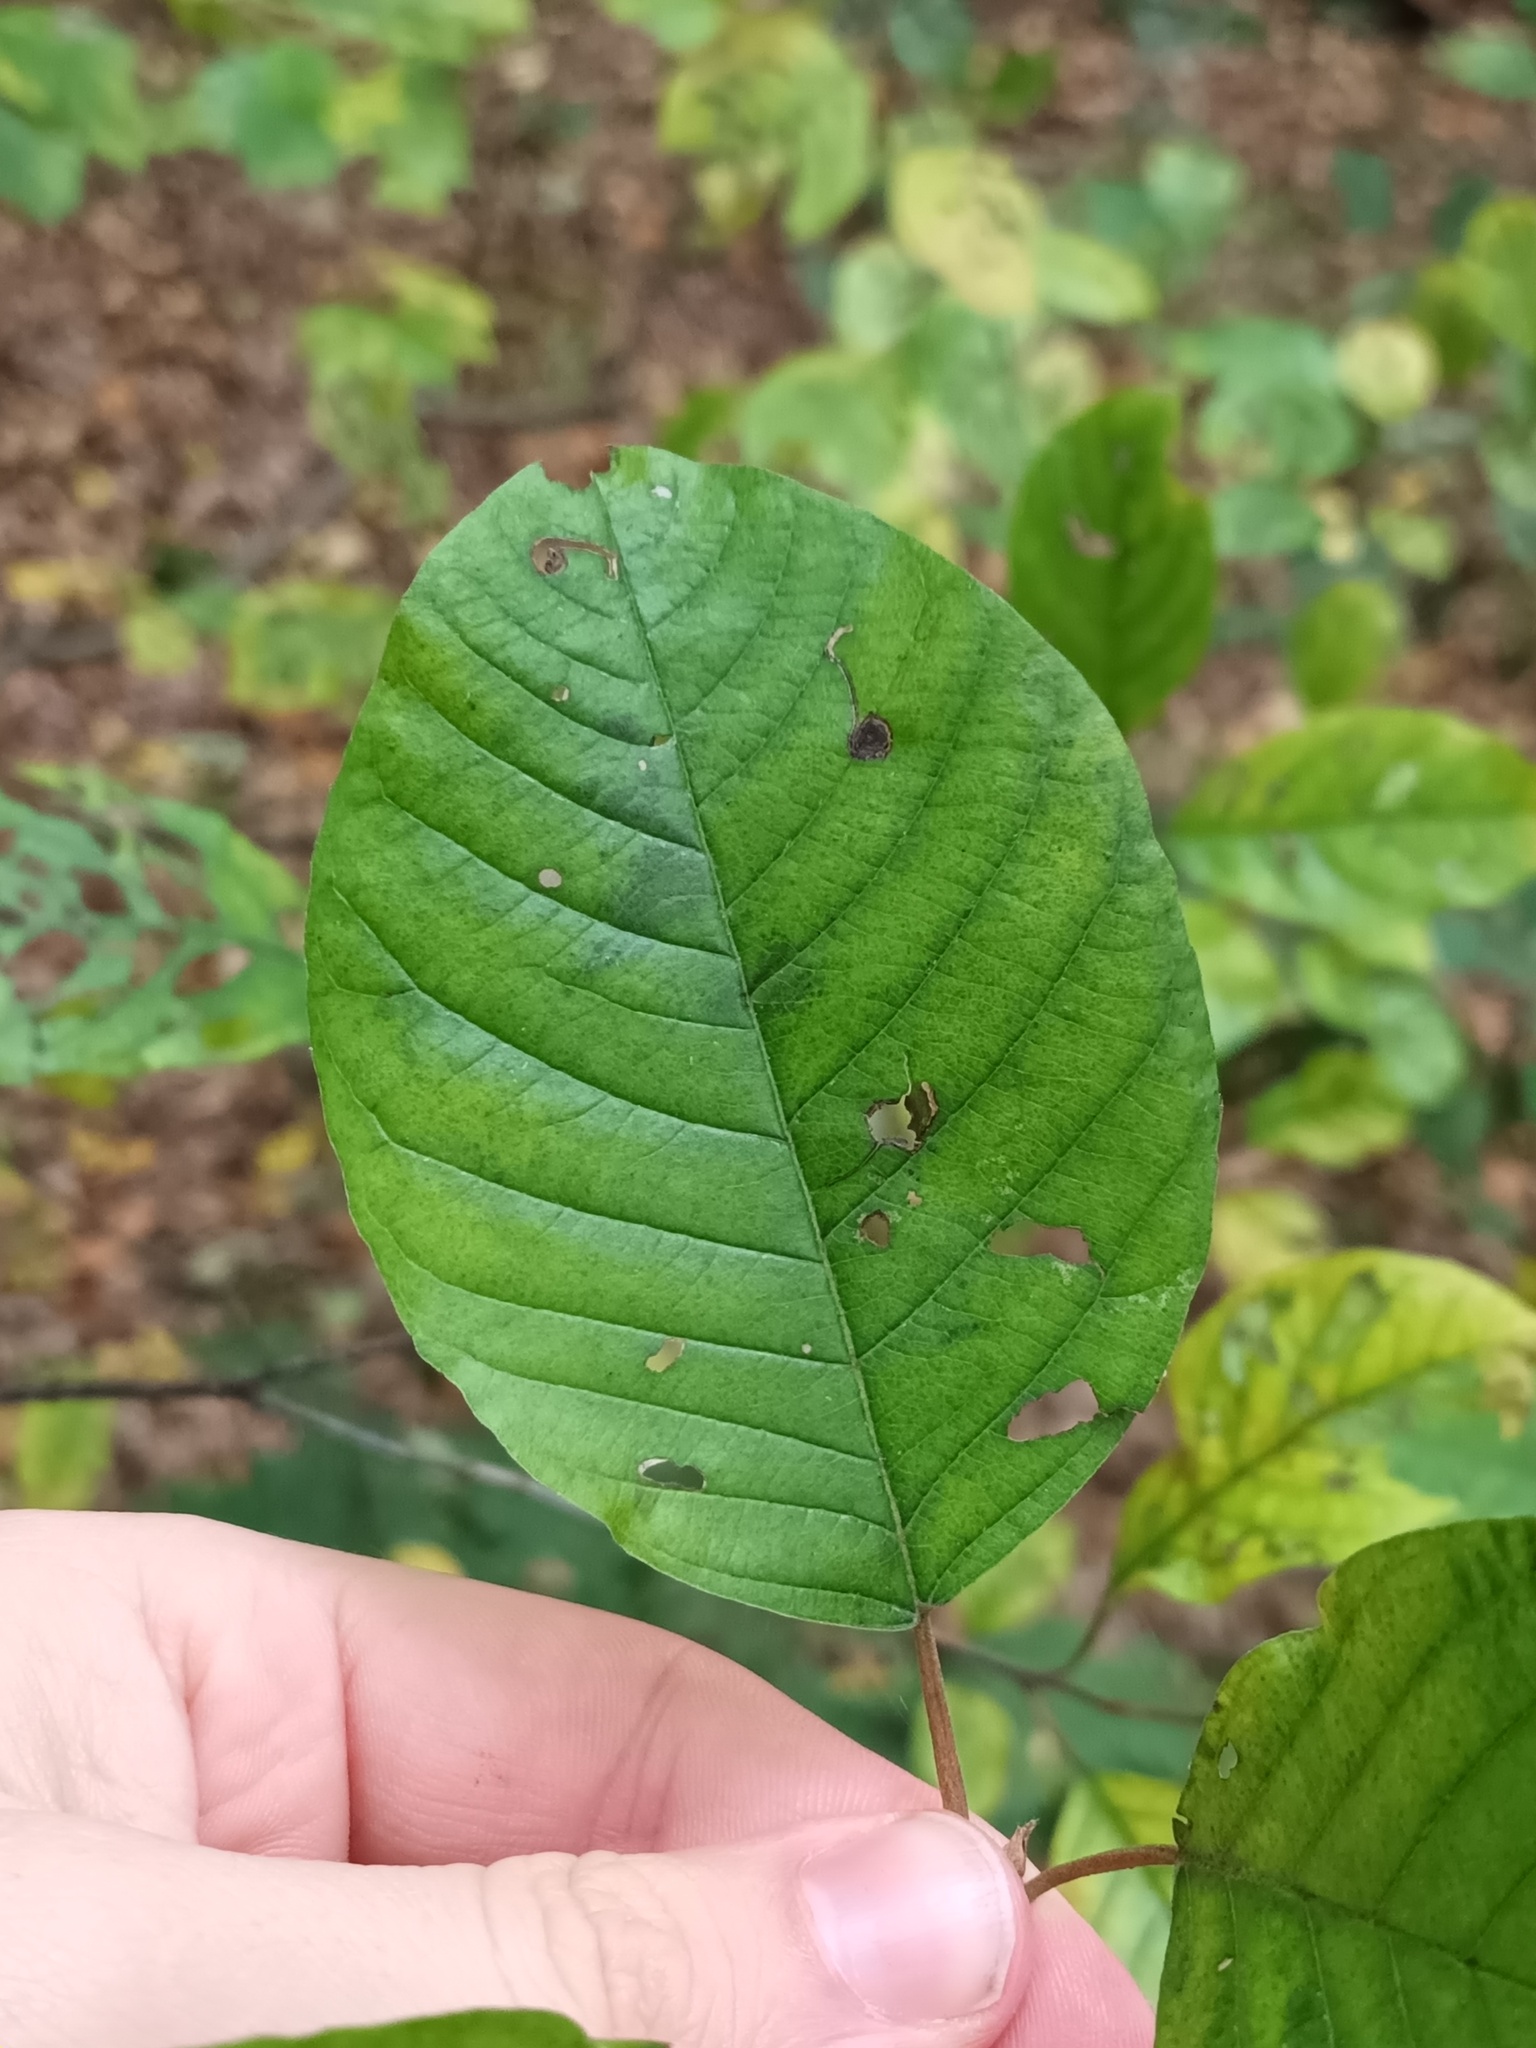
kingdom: Plantae
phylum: Tracheophyta
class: Magnoliopsida
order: Rosales
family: Rhamnaceae
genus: Frangula
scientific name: Frangula alnus
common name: Alder buckthorn
